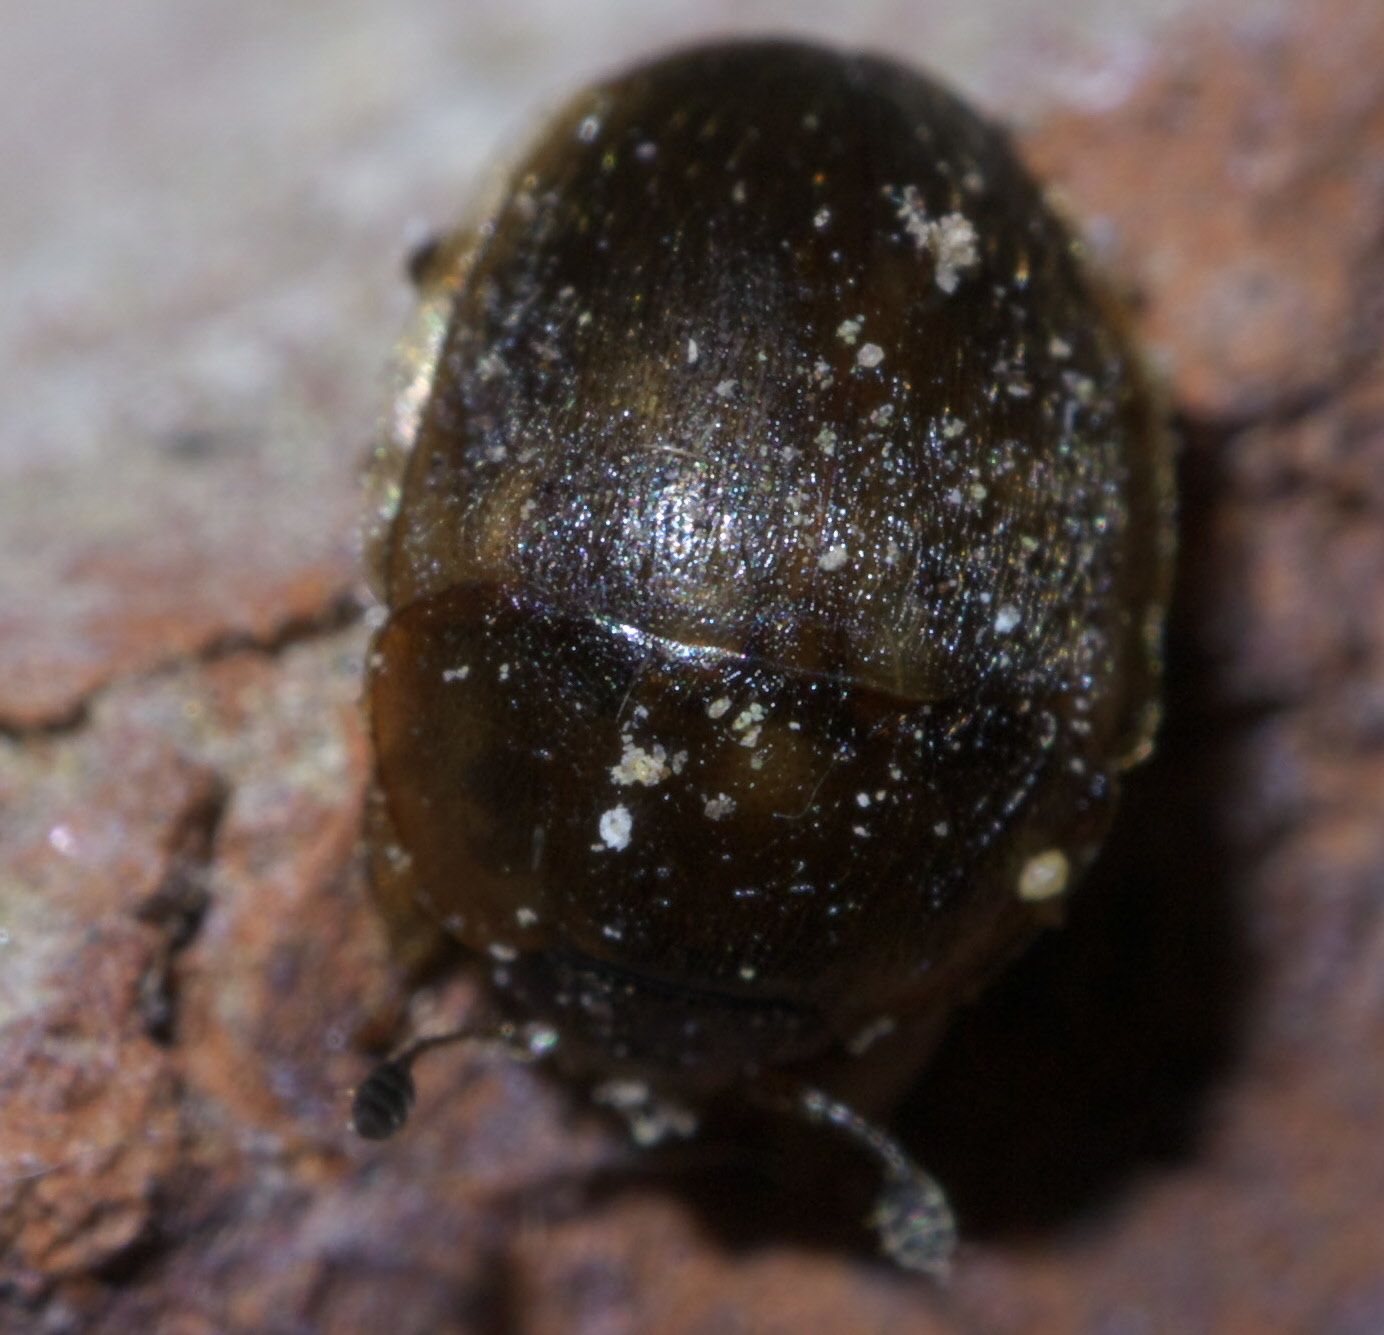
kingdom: Animalia
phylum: Arthropoda
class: Insecta
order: Coleoptera
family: Nitidulidae
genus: Amphicrossus
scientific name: Amphicrossus ciliatus
